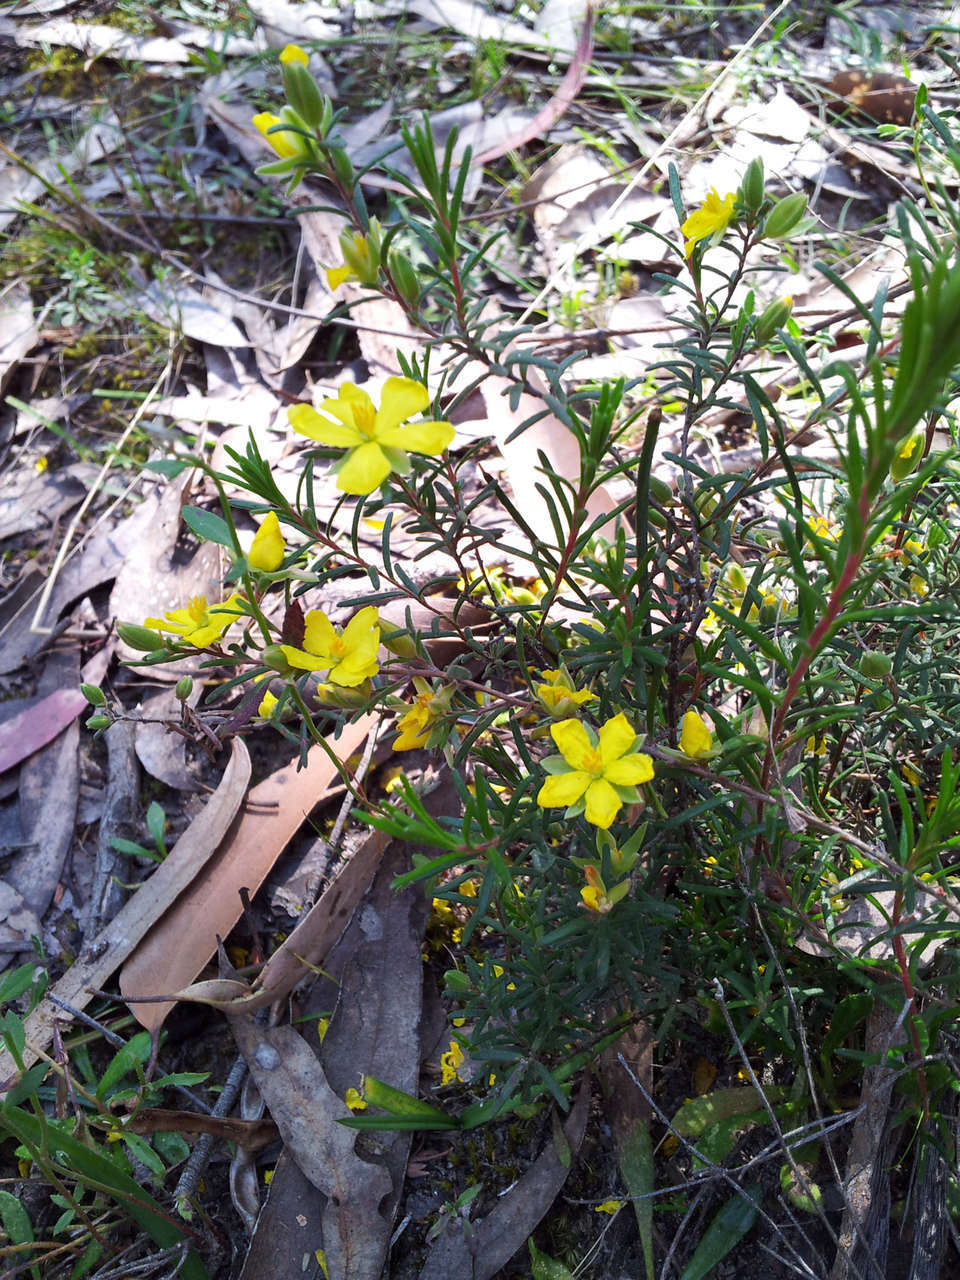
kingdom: Plantae
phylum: Tracheophyta
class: Magnoliopsida
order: Dilleniales
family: Dilleniaceae
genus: Hibbertia
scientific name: Hibbertia riparia
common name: Erect guinea-flower
